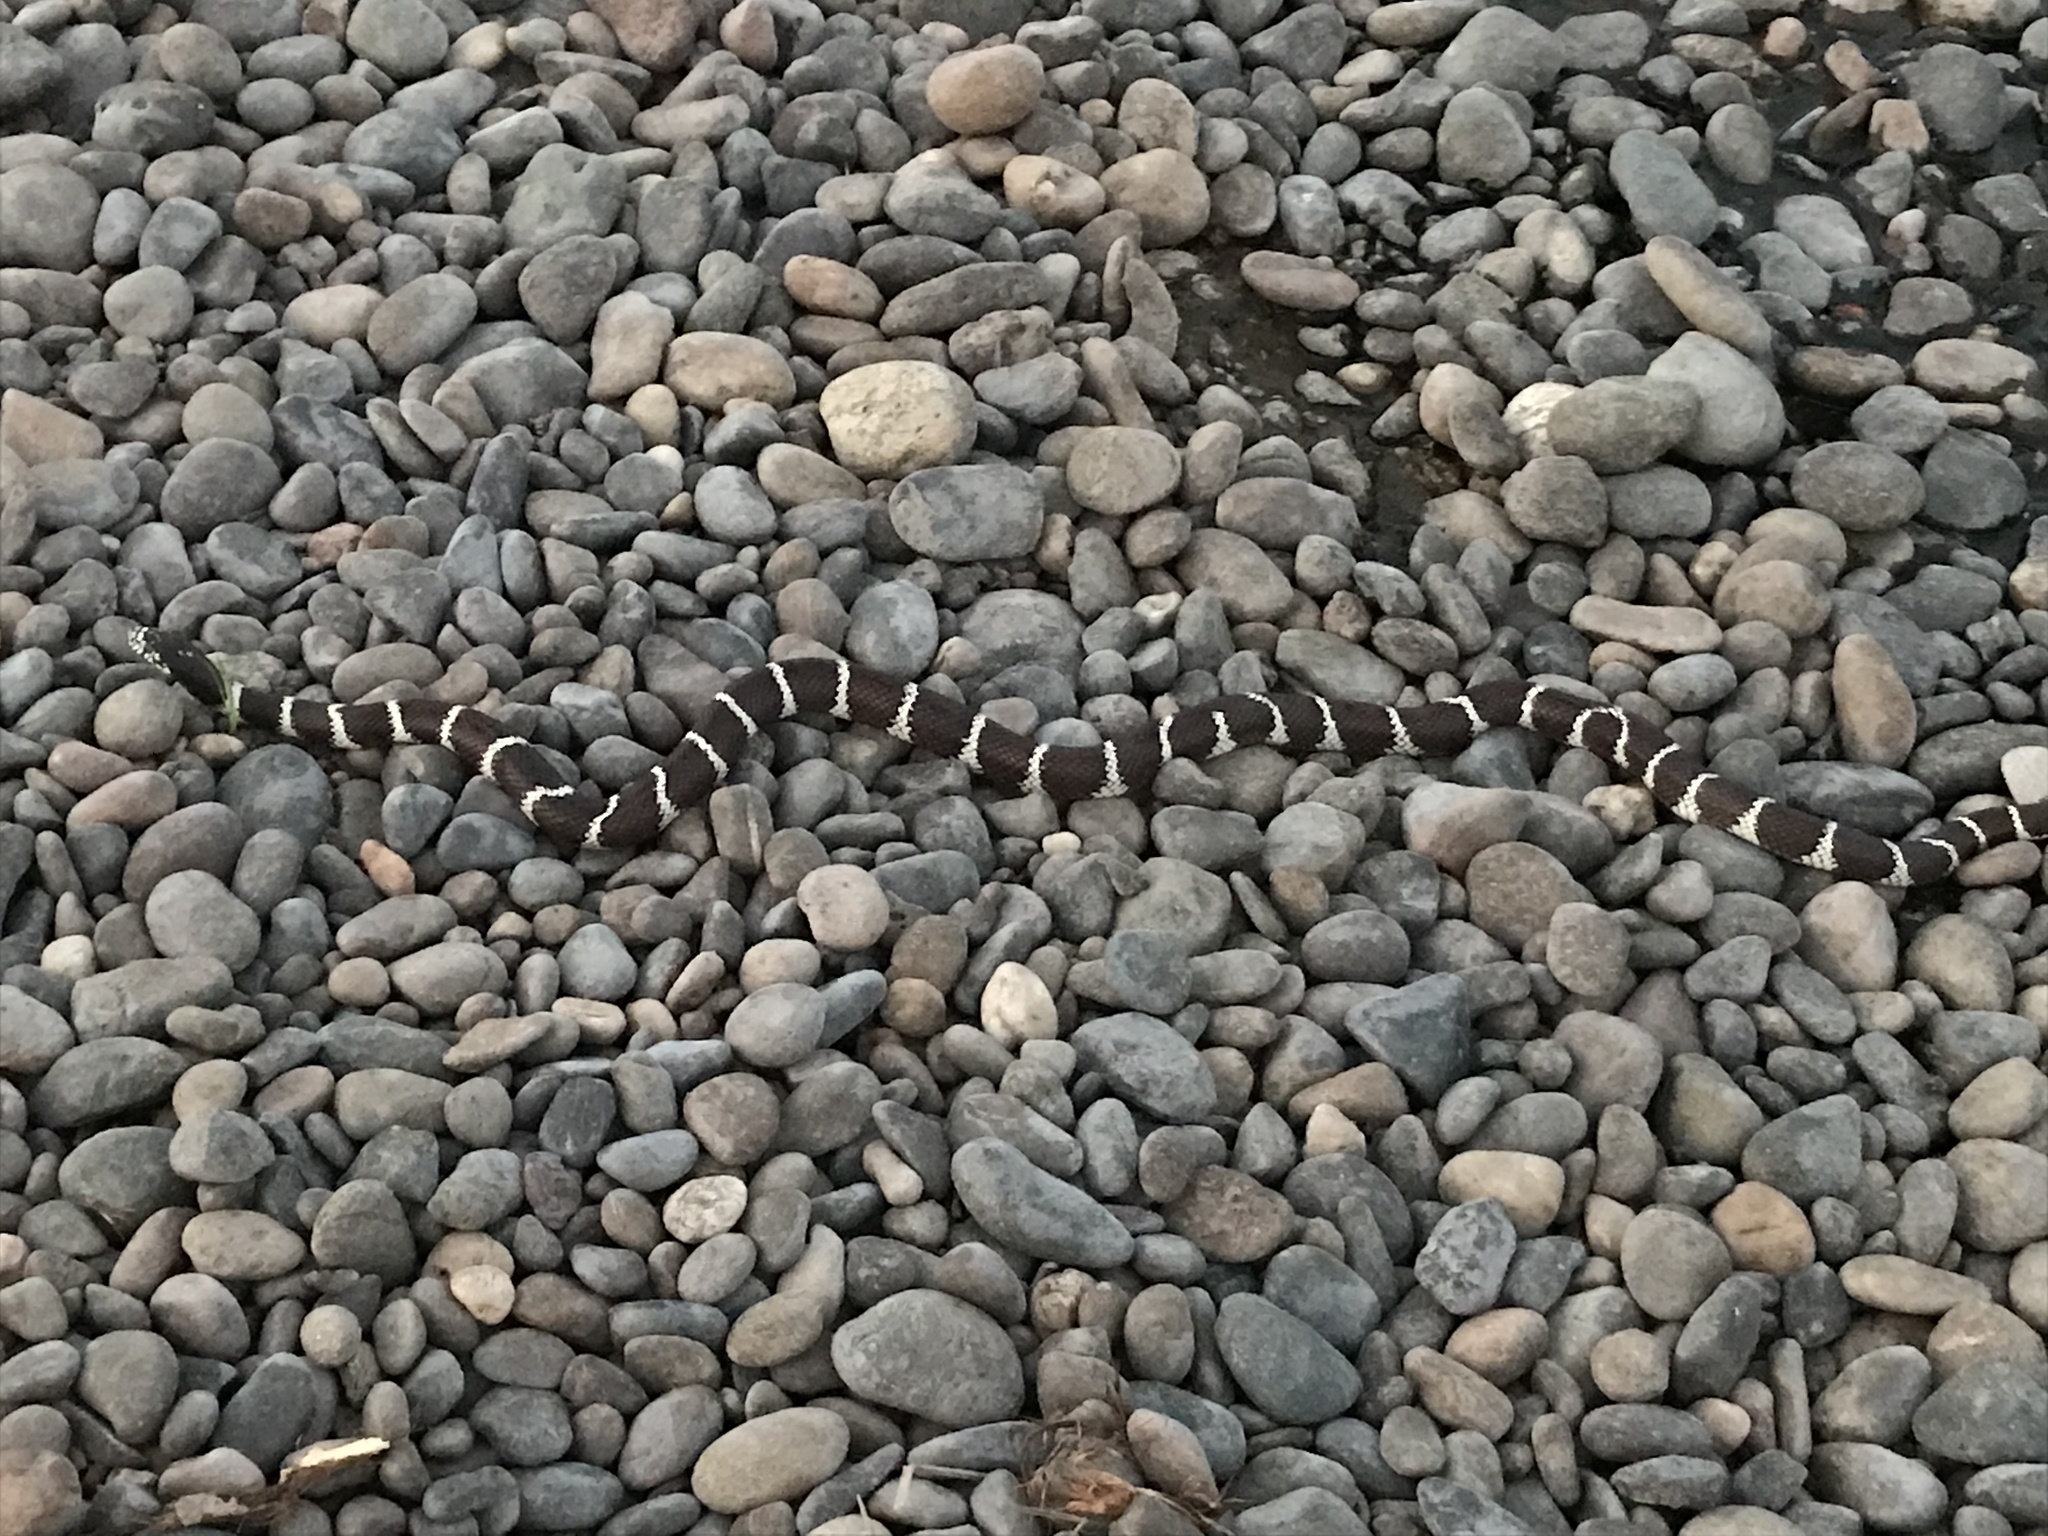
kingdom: Animalia
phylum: Chordata
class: Squamata
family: Colubridae
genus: Lampropeltis
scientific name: Lampropeltis californiae
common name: California kingsnake
